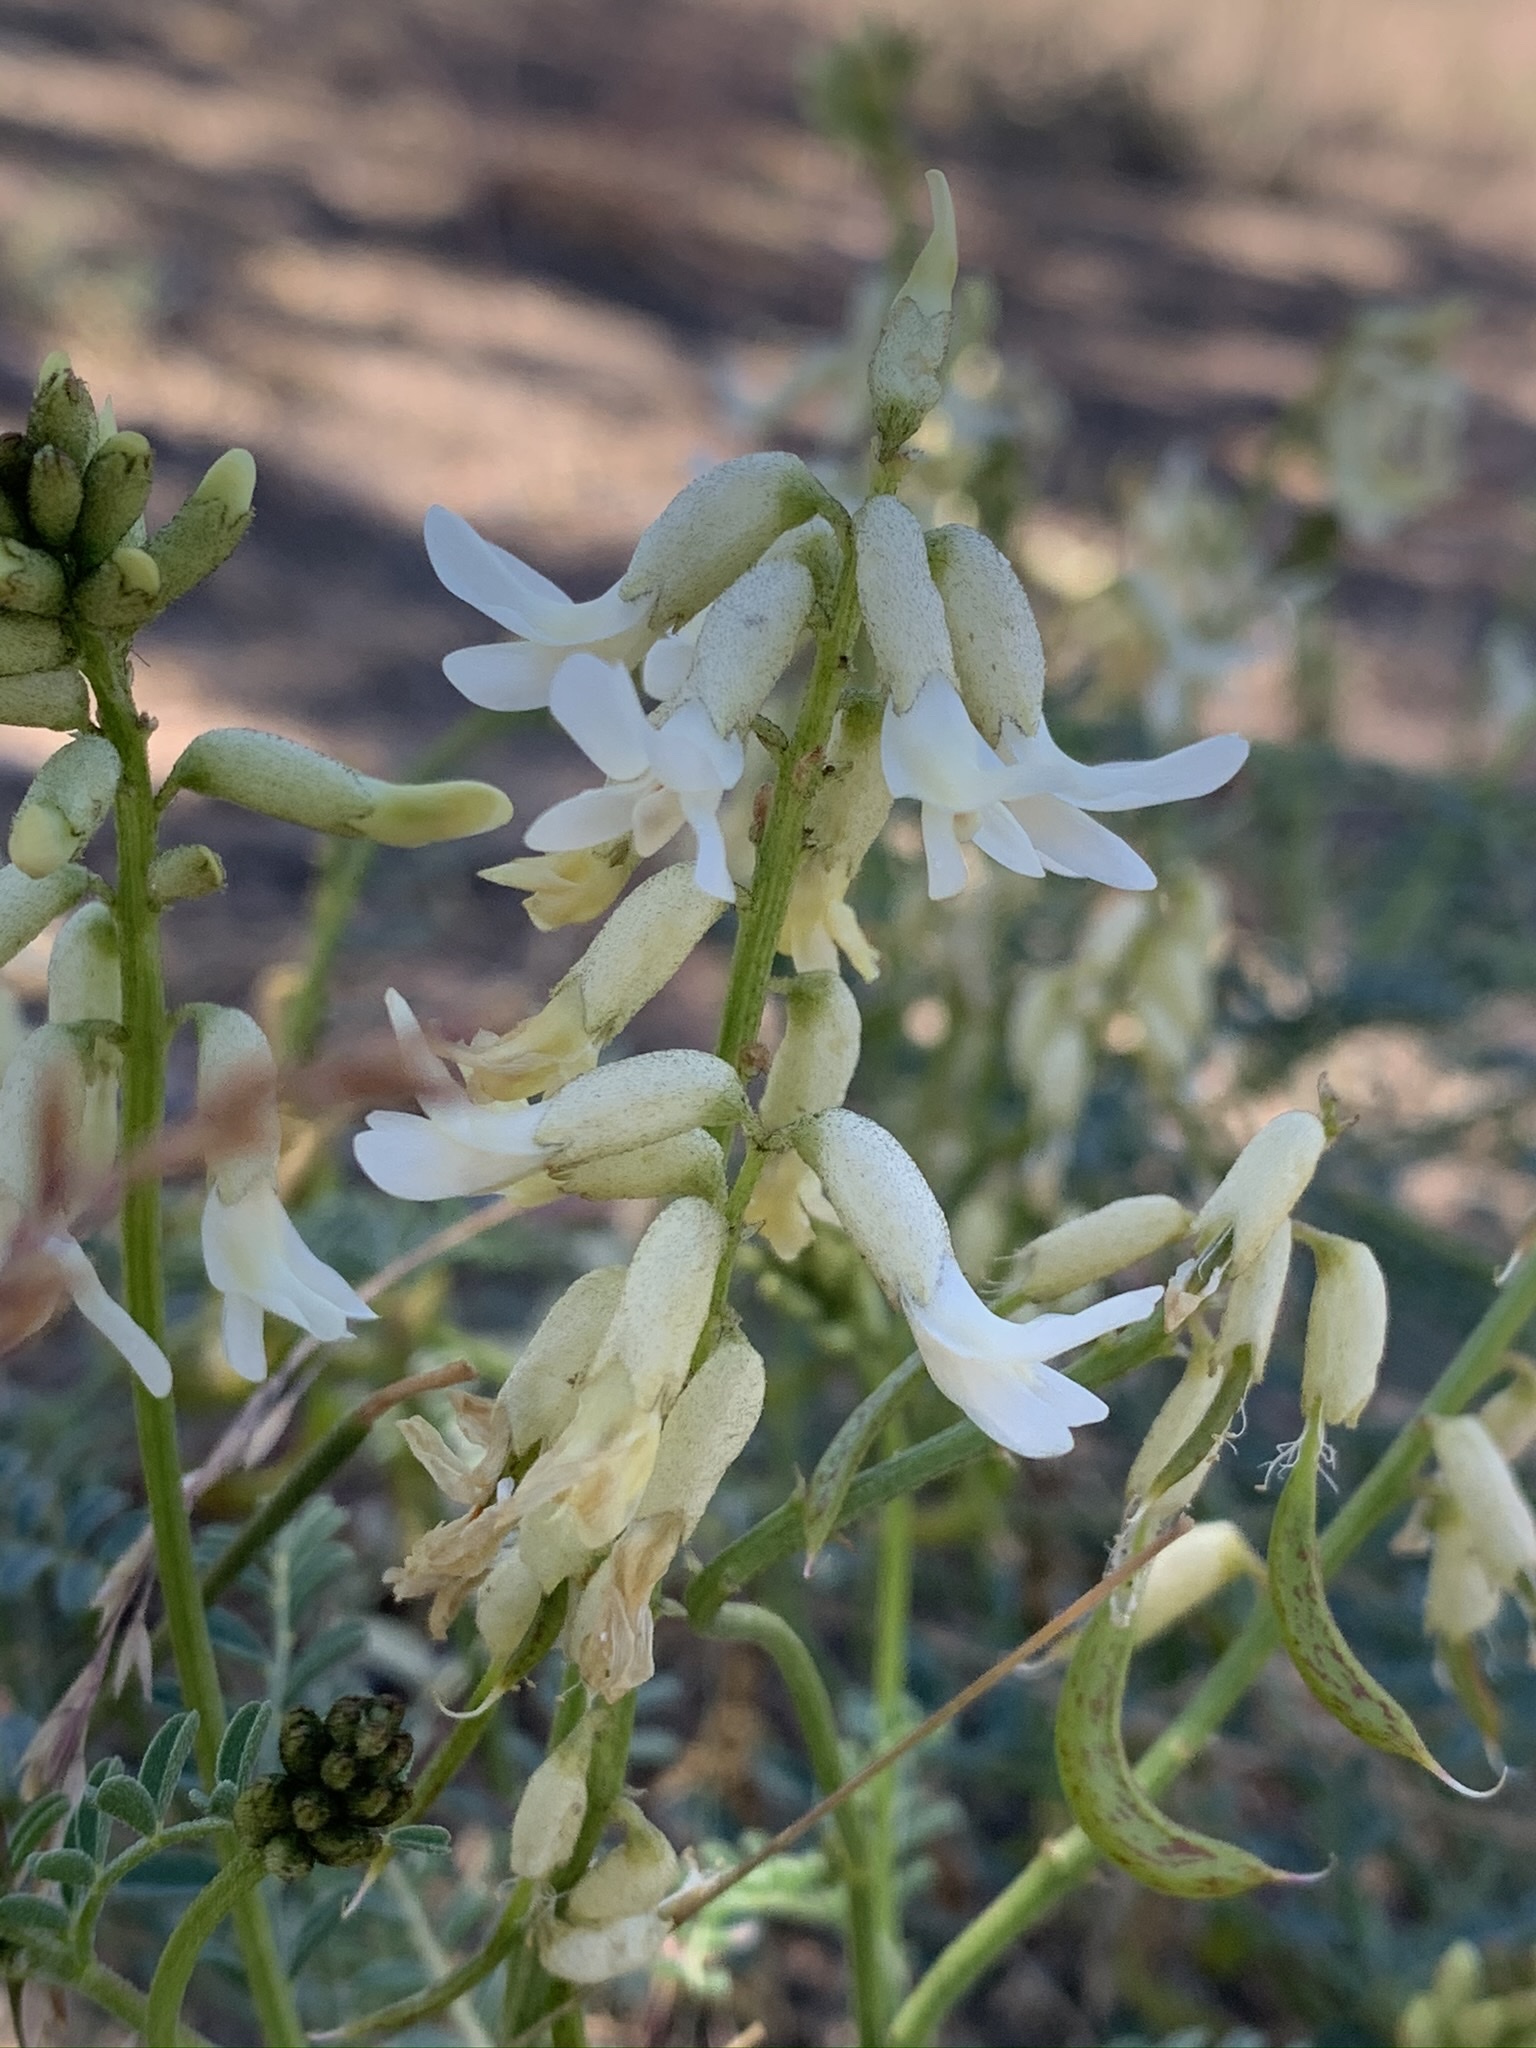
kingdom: Plantae
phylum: Tracheophyta
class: Magnoliopsida
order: Fabales
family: Fabaceae
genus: Astragalus
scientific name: Astragalus curvicarpus
